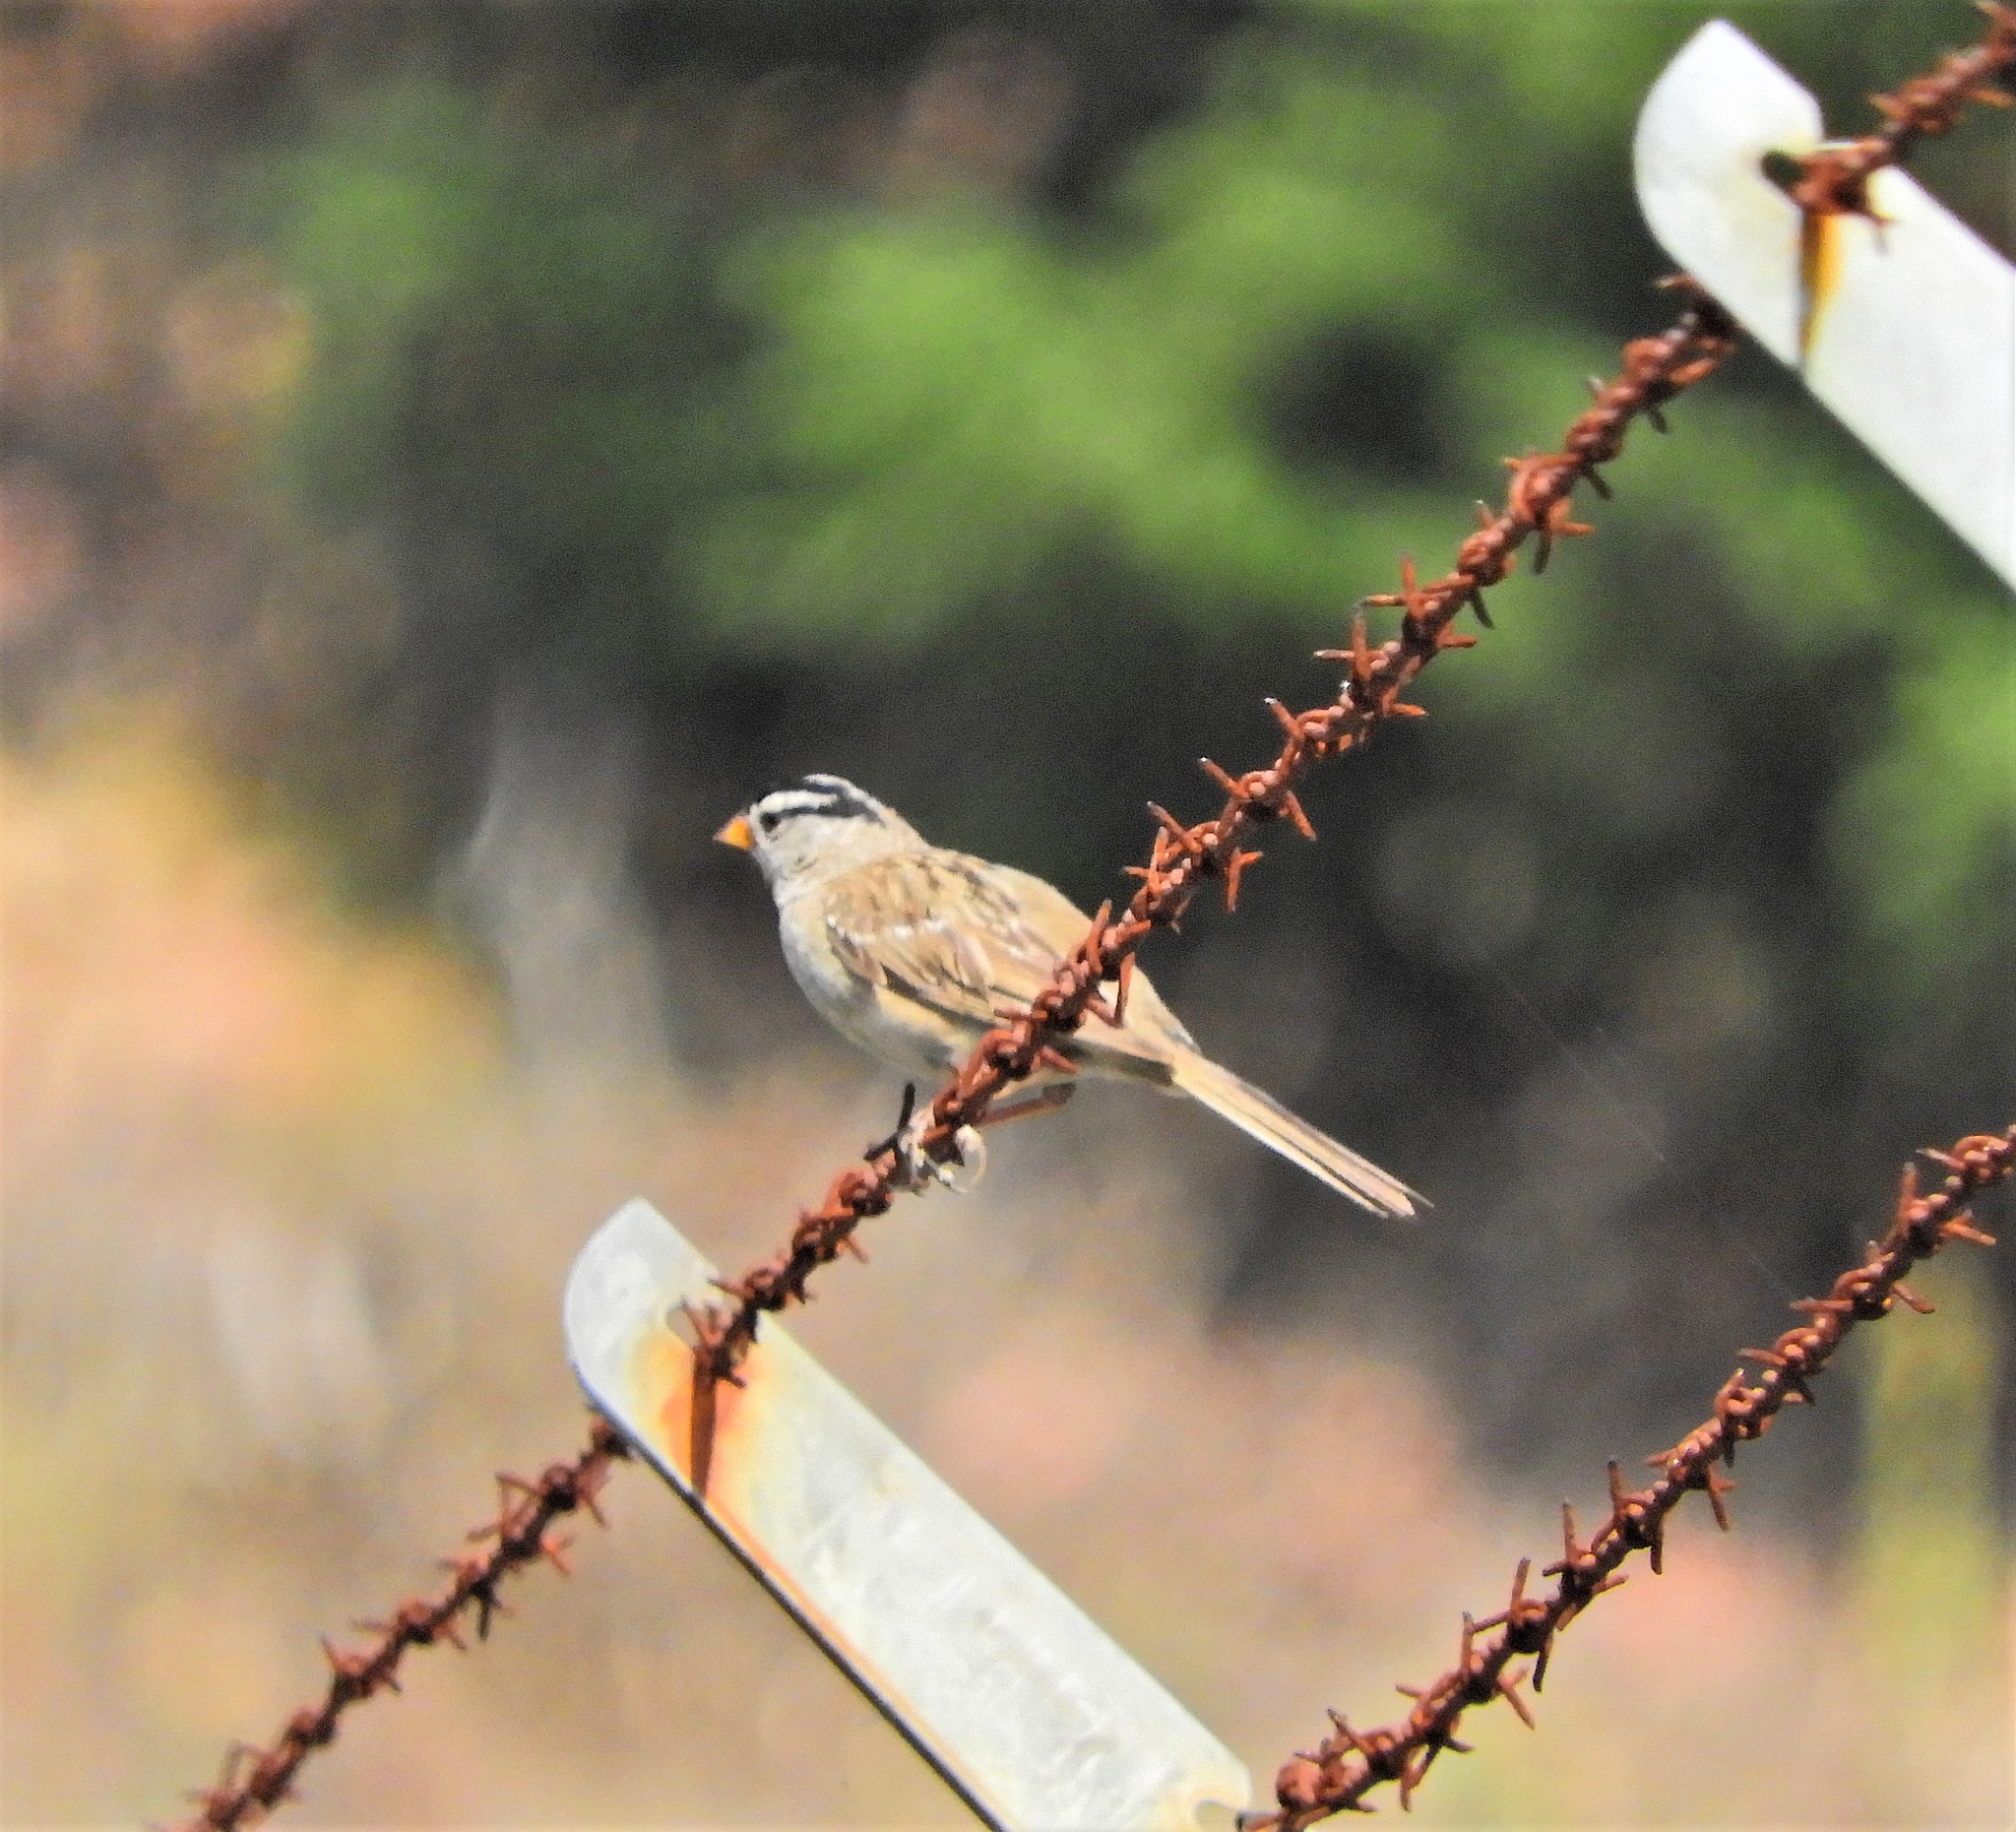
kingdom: Animalia
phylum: Chordata
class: Aves
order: Passeriformes
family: Passerellidae
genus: Zonotrichia
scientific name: Zonotrichia leucophrys
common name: White-crowned sparrow
